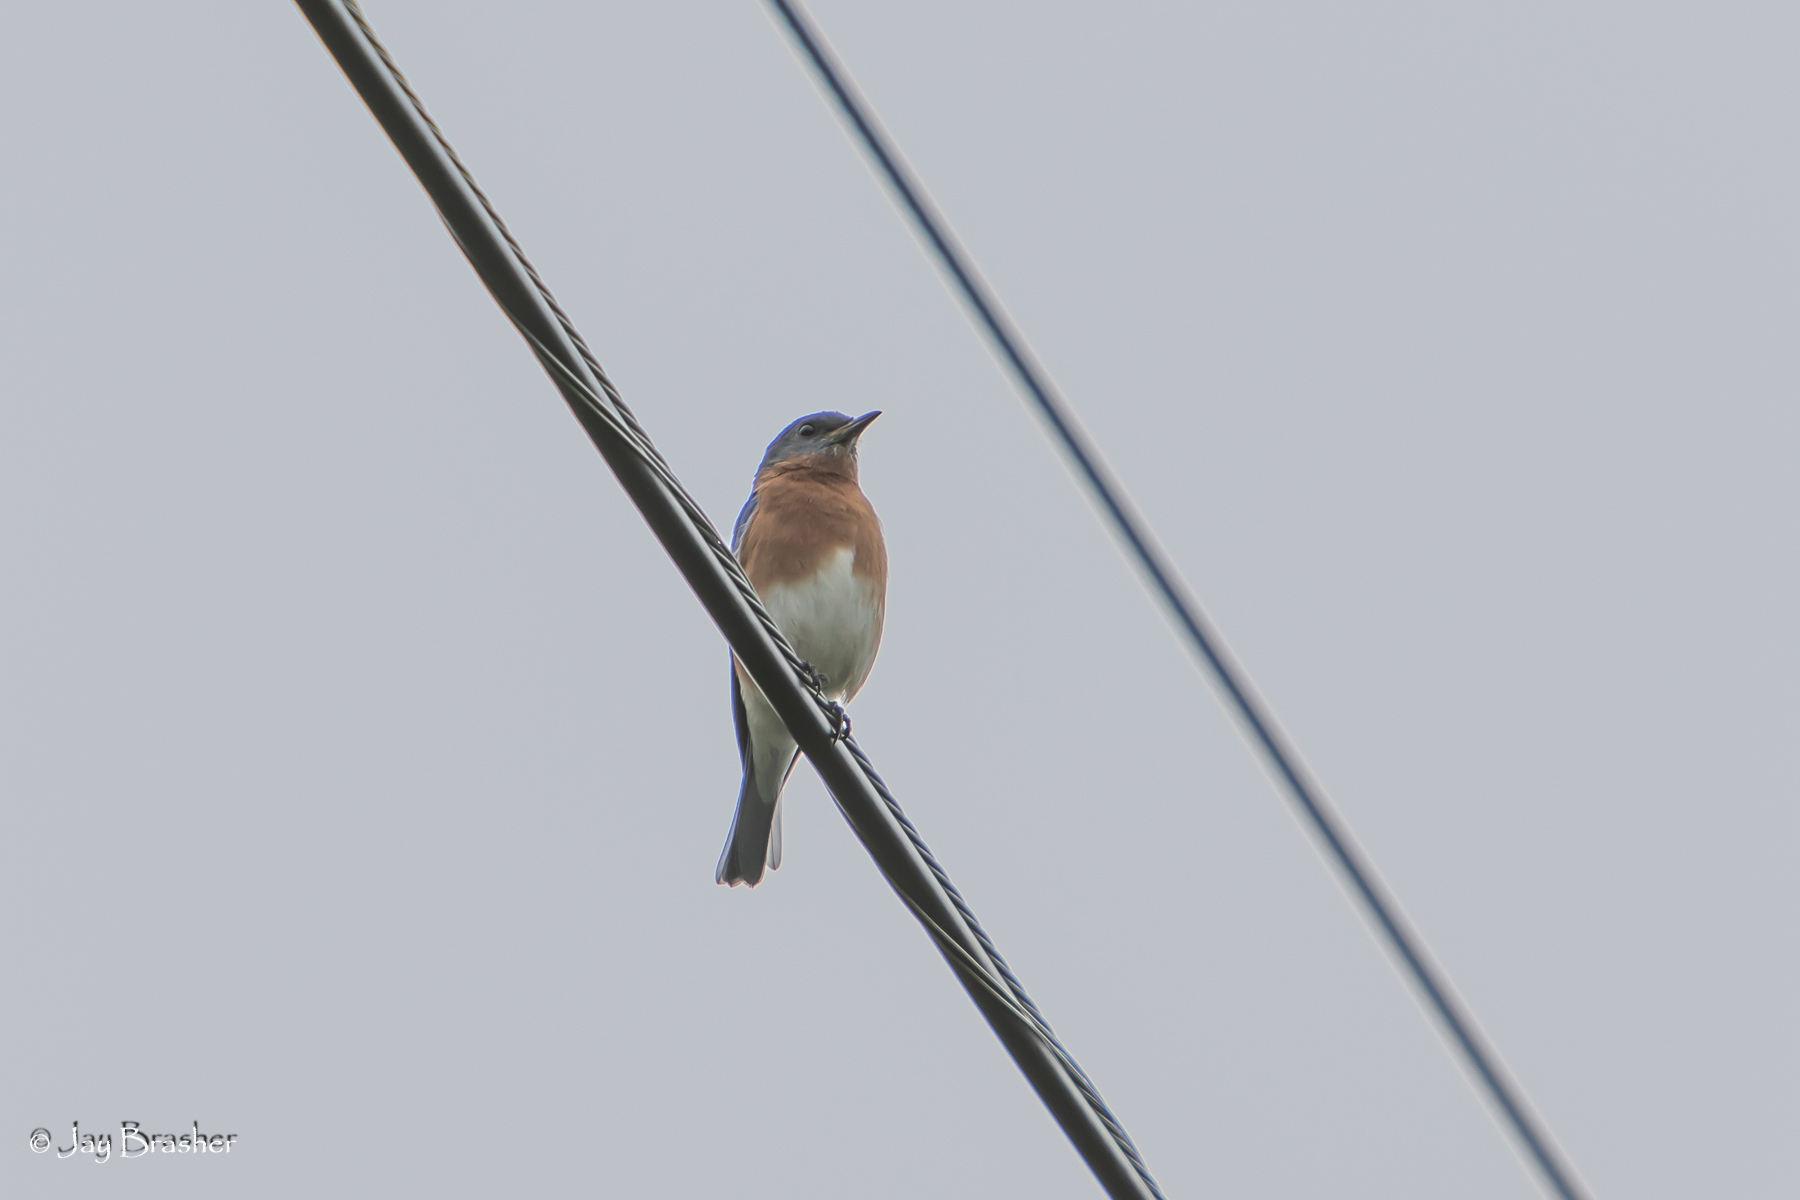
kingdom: Animalia
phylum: Chordata
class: Aves
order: Passeriformes
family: Turdidae
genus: Sialia
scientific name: Sialia sialis
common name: Eastern bluebird
